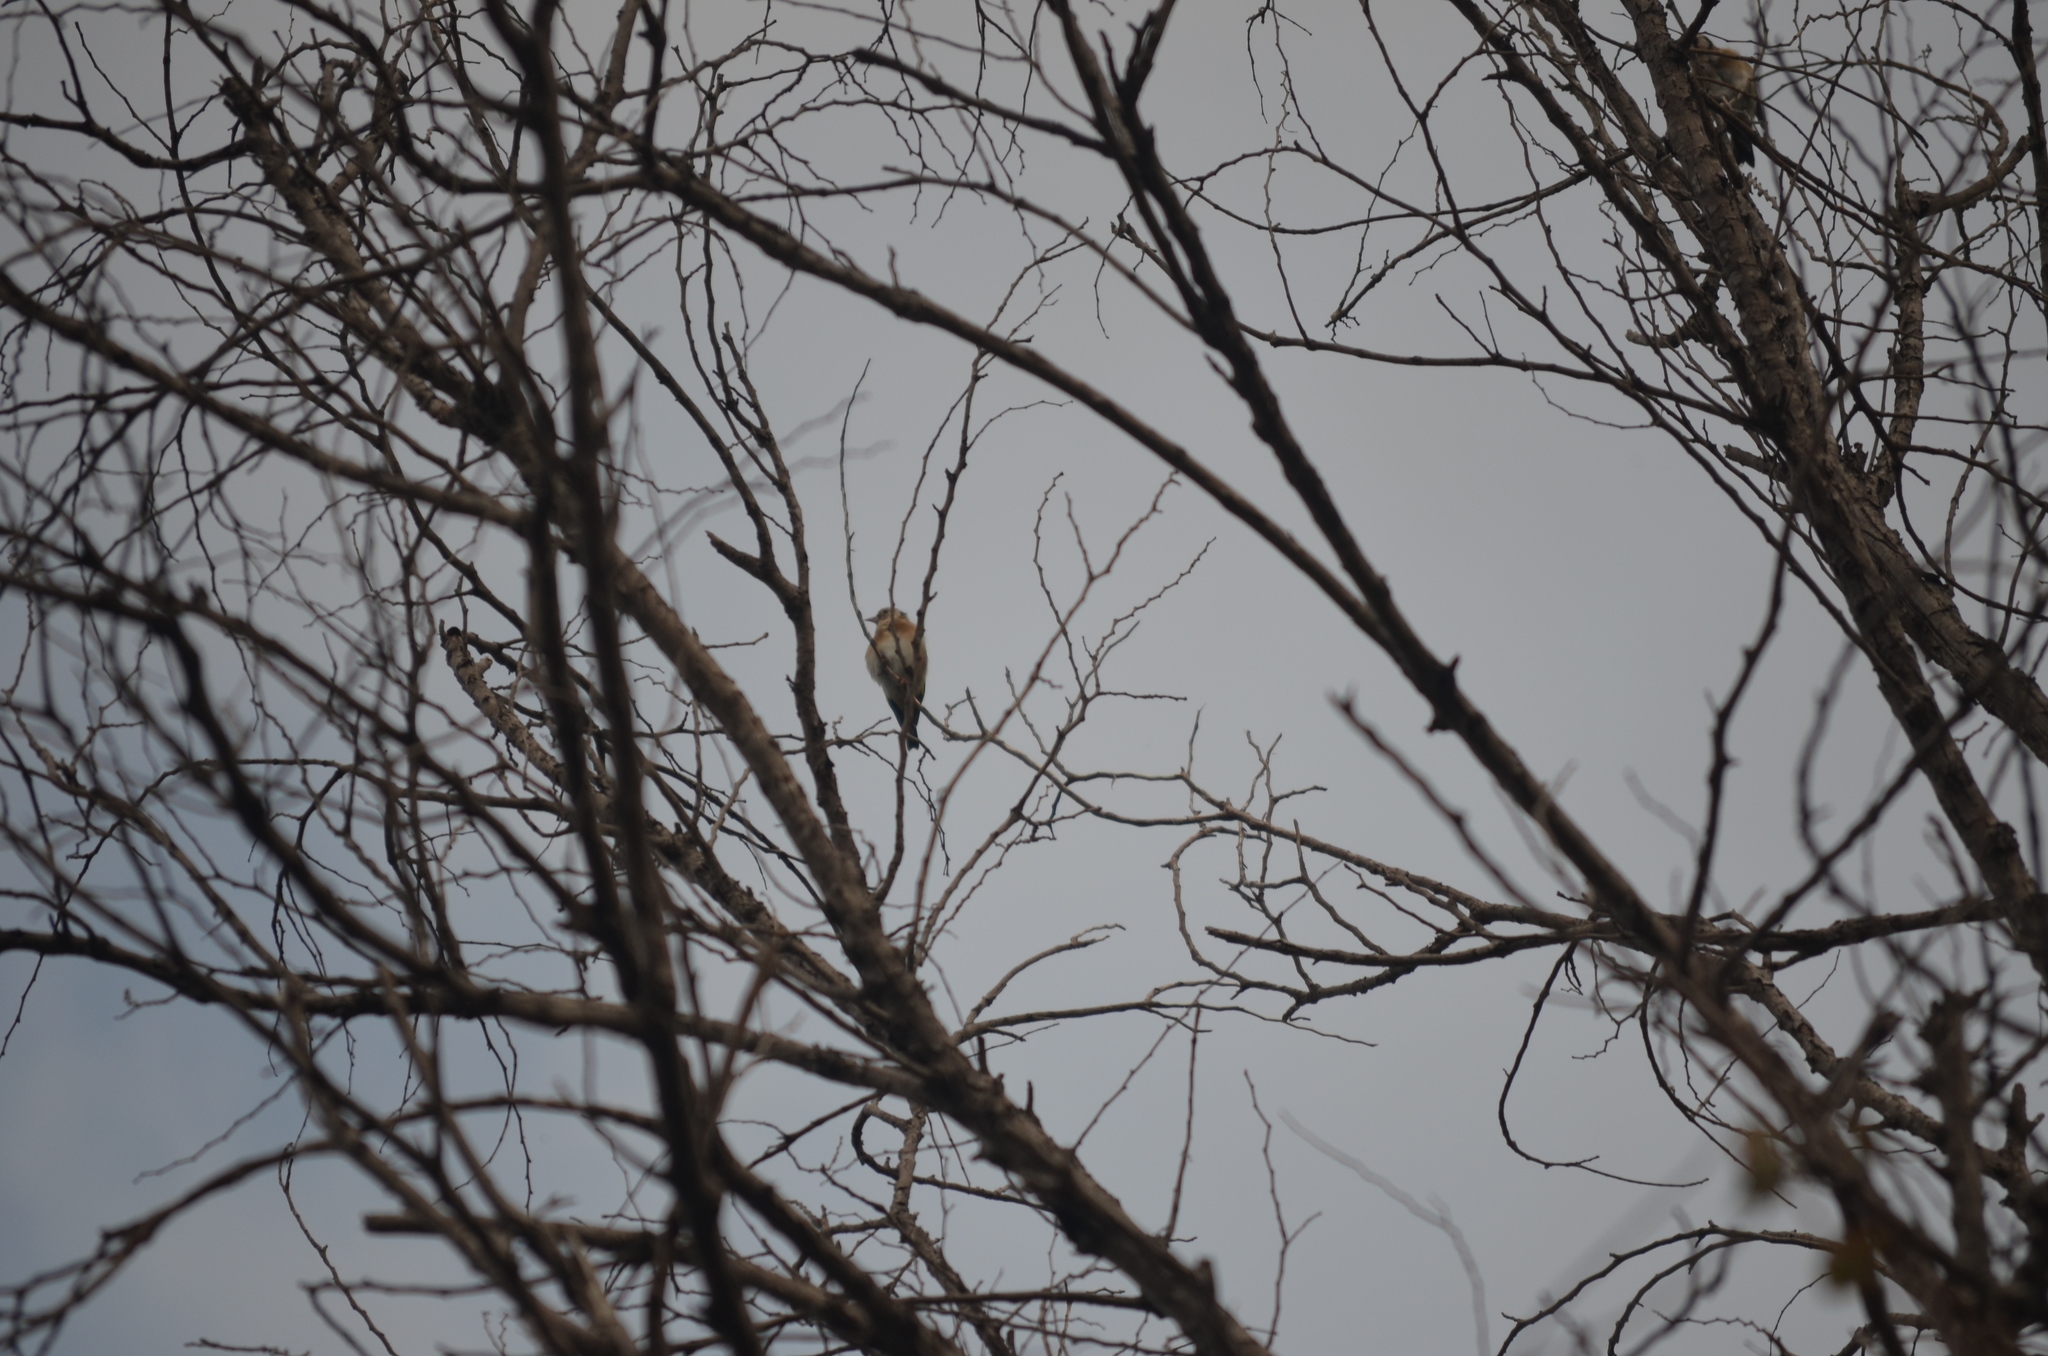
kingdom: Animalia
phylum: Chordata
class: Aves
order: Passeriformes
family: Fringillidae
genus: Carduelis
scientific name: Carduelis carduelis
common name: European goldfinch
